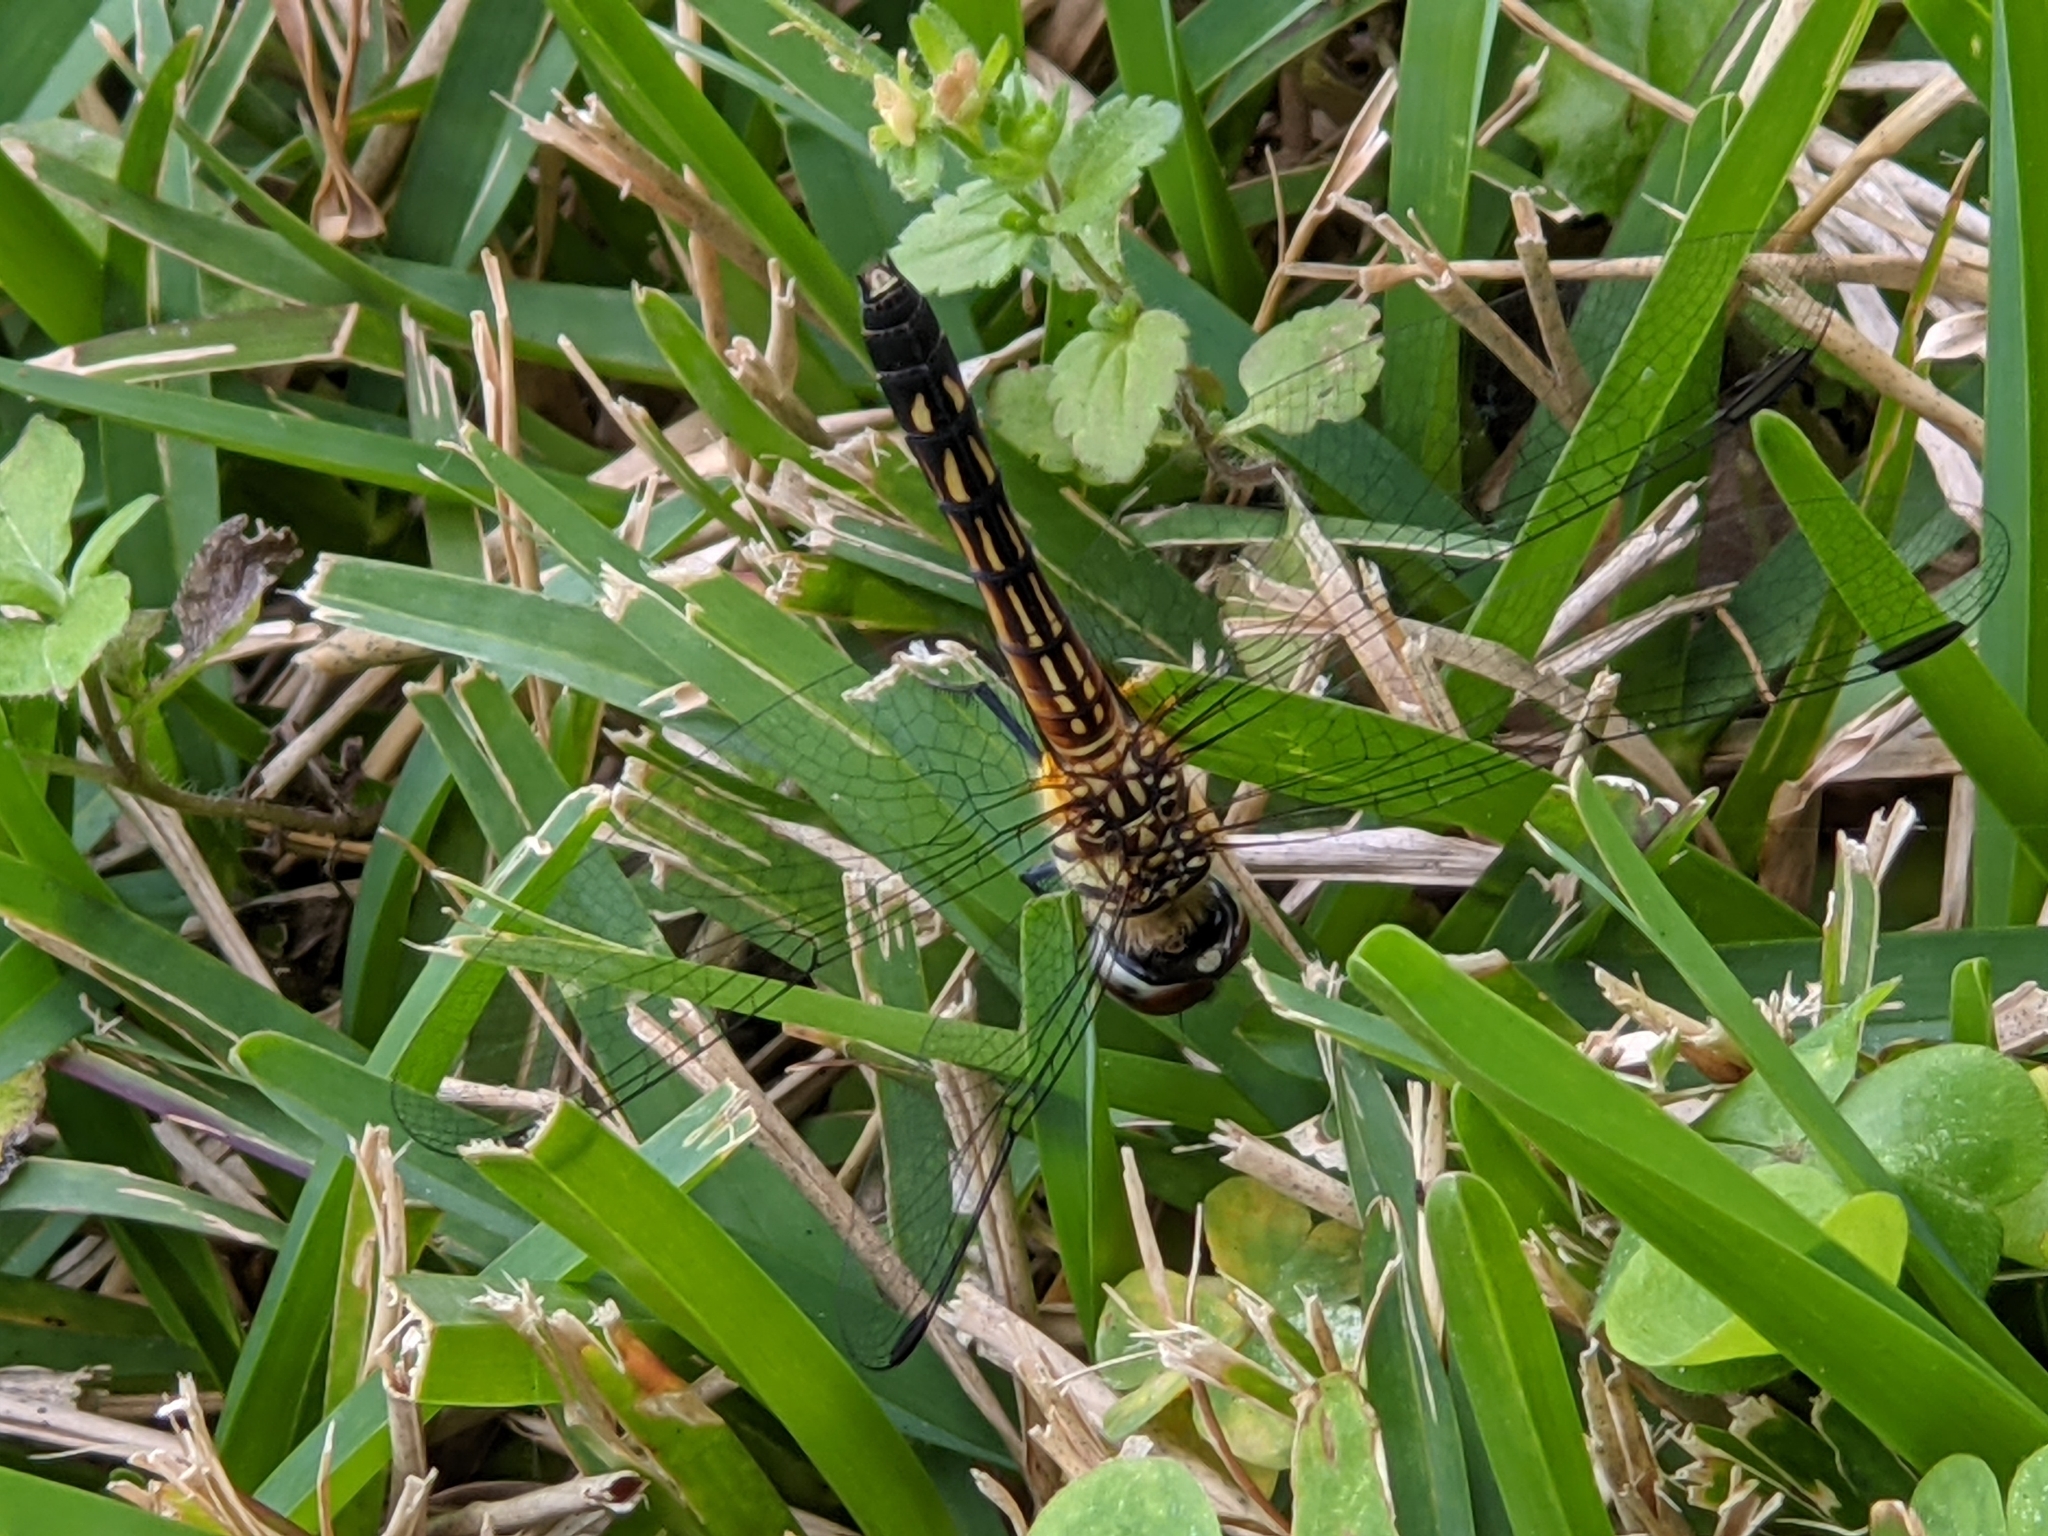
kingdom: Animalia
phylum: Arthropoda
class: Insecta
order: Odonata
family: Libellulidae
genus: Pachydiplax
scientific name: Pachydiplax longipennis
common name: Blue dasher
